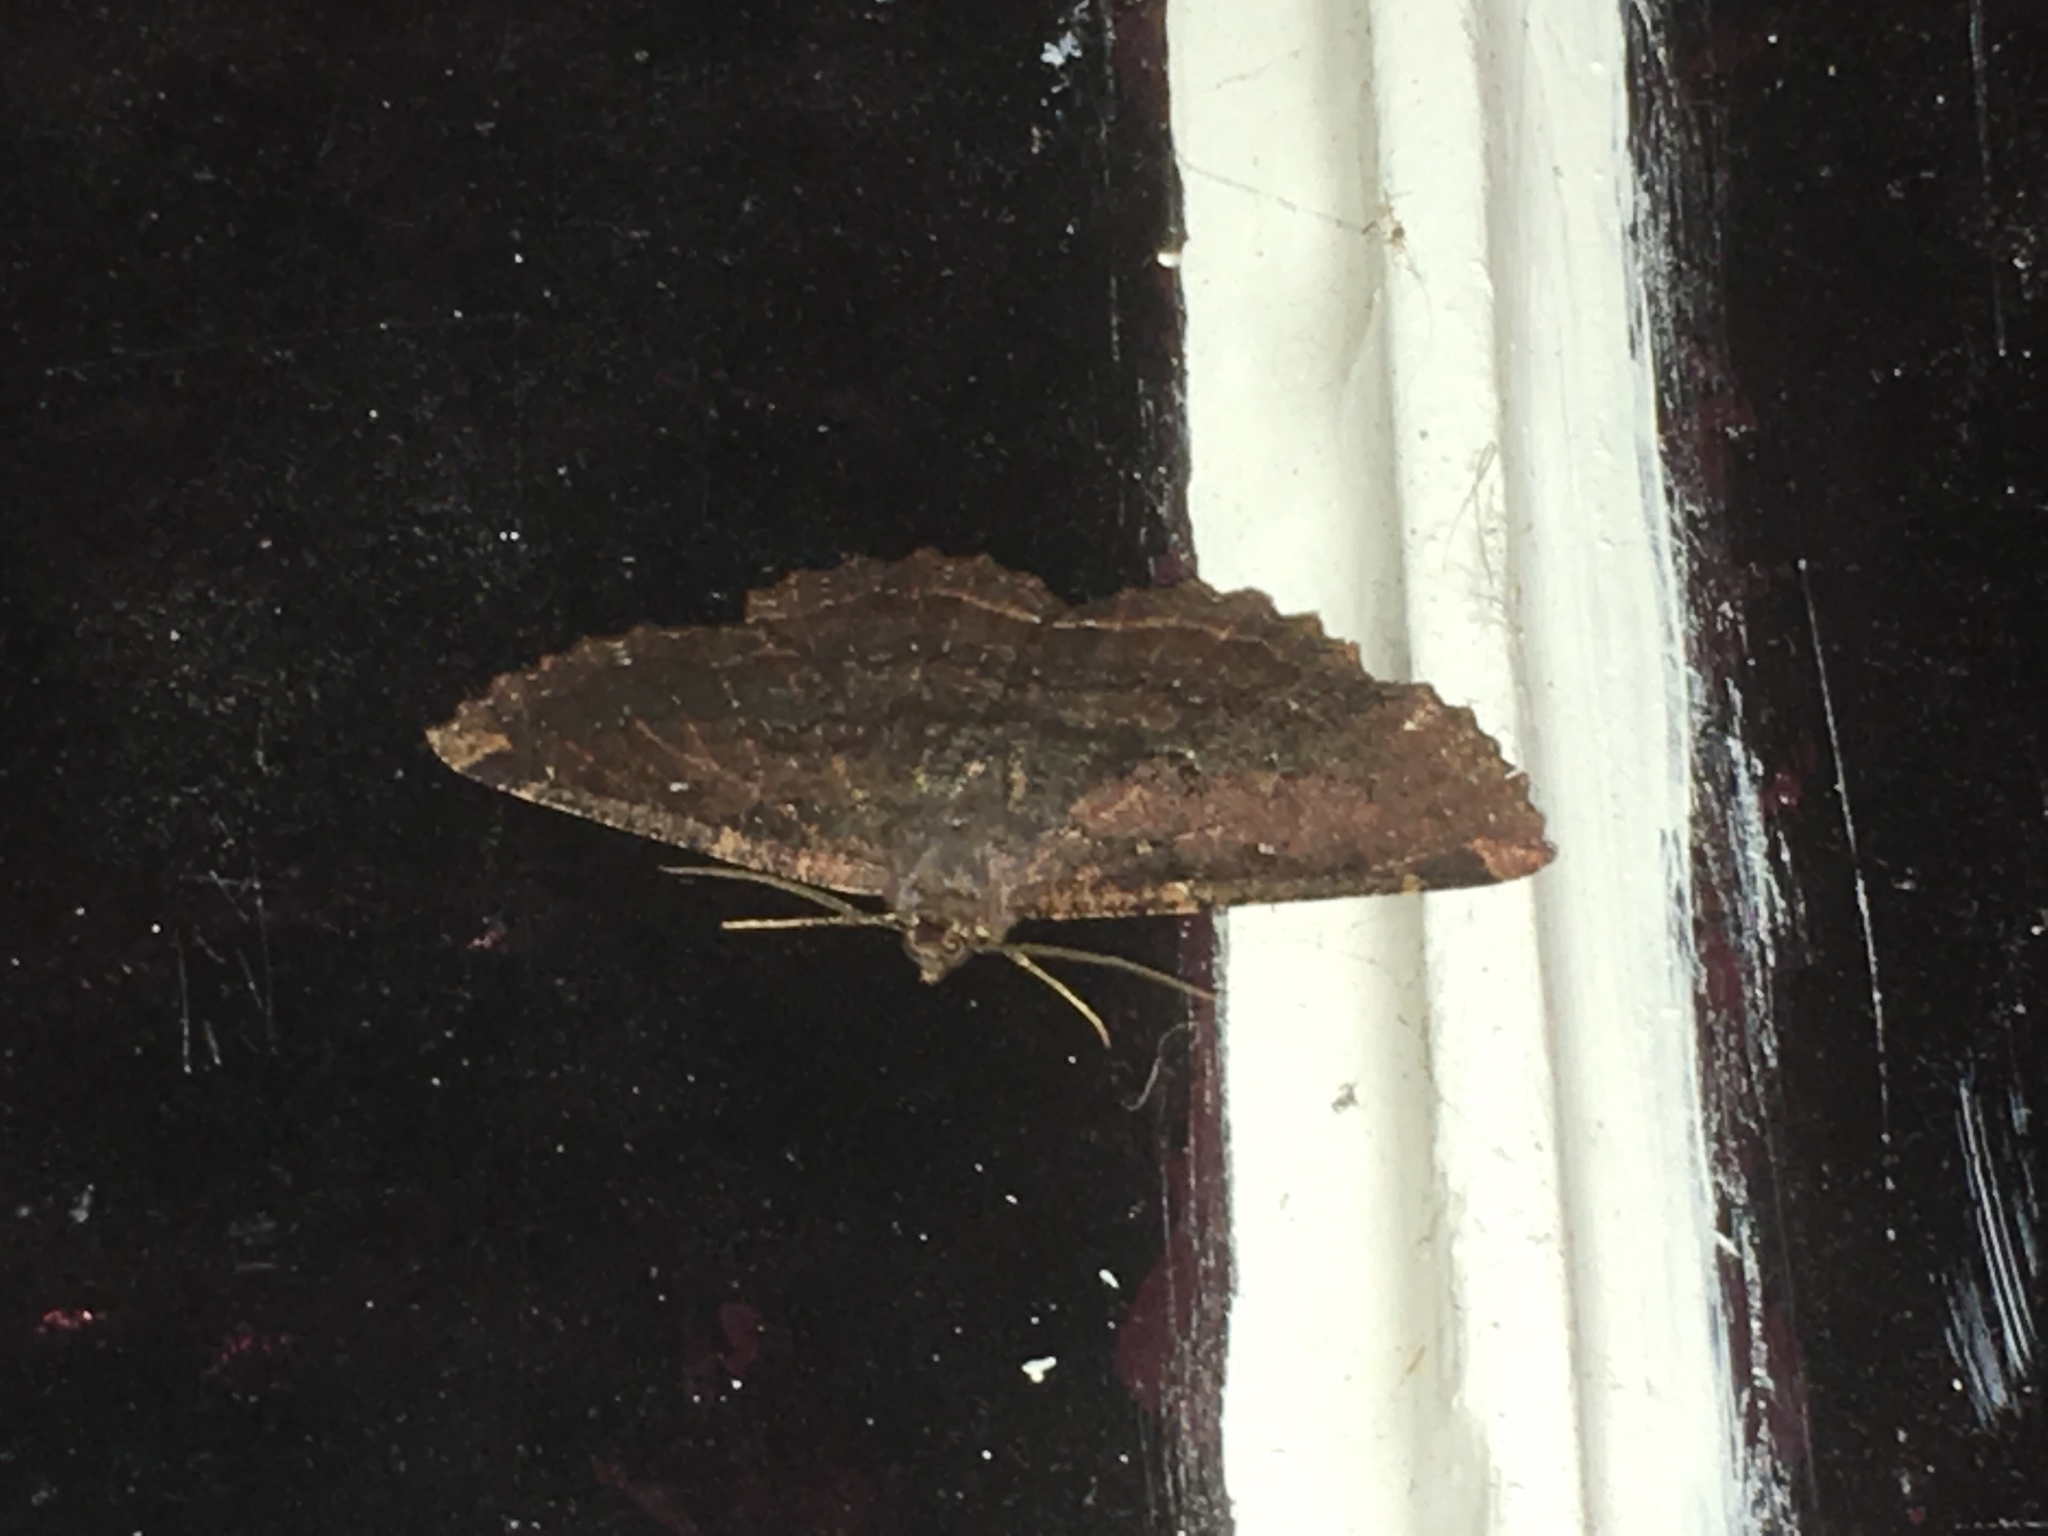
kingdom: Animalia
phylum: Arthropoda
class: Insecta
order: Lepidoptera
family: Geometridae
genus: Gellonia
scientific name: Gellonia dejectaria
